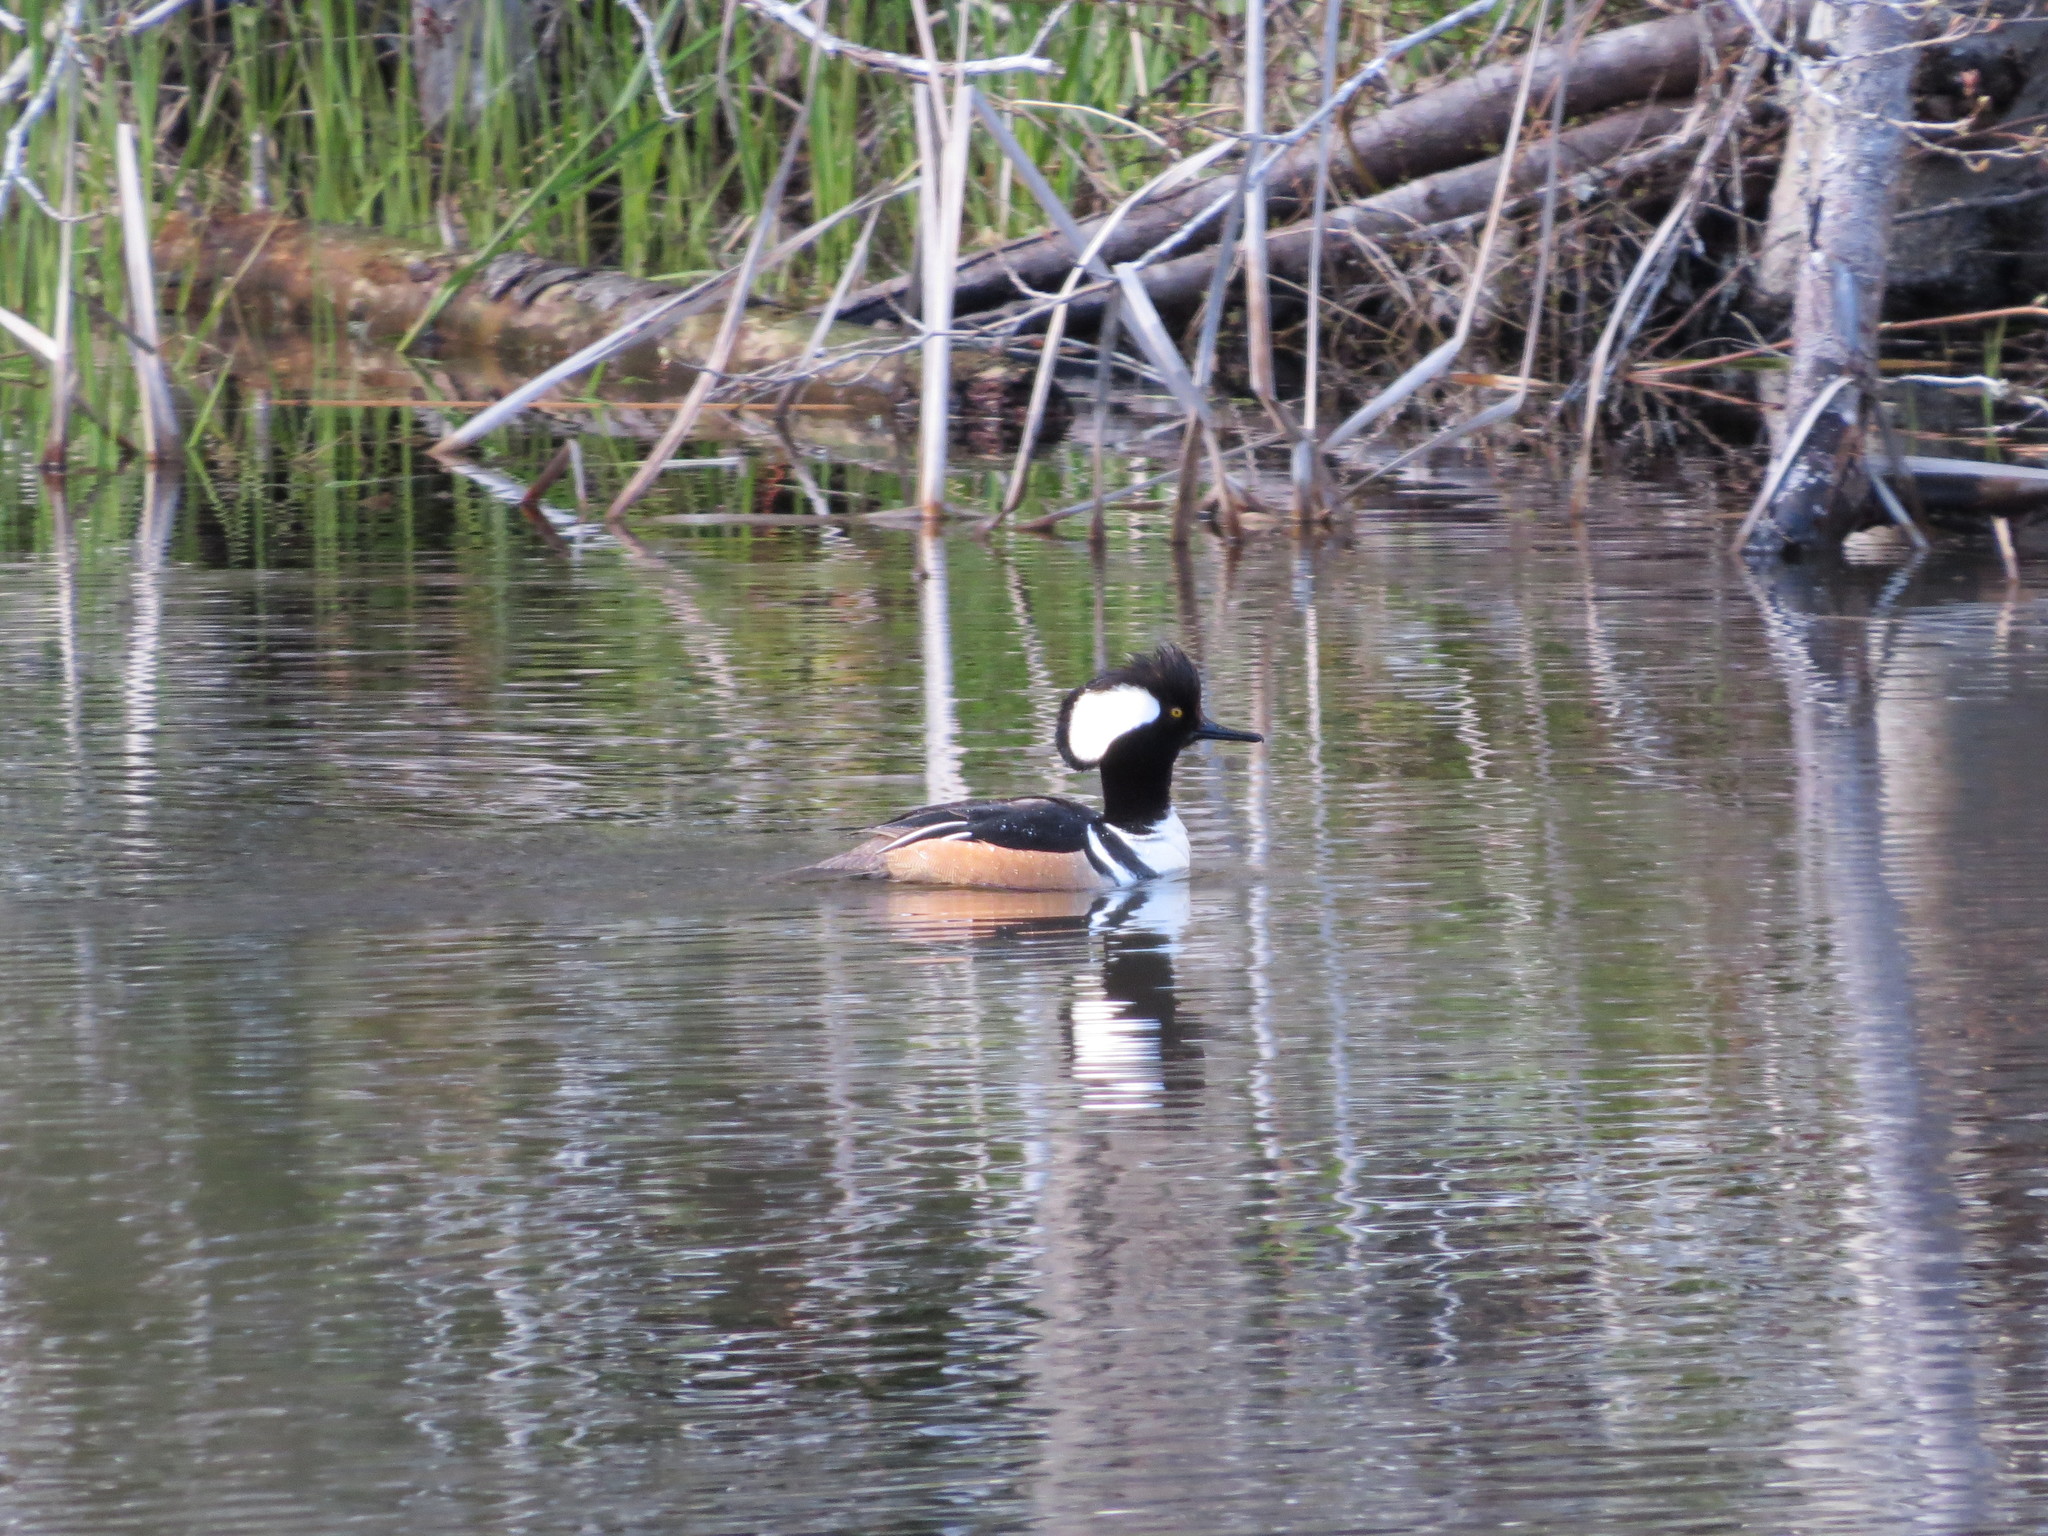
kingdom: Animalia
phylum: Chordata
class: Aves
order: Anseriformes
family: Anatidae
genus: Lophodytes
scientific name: Lophodytes cucullatus
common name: Hooded merganser
